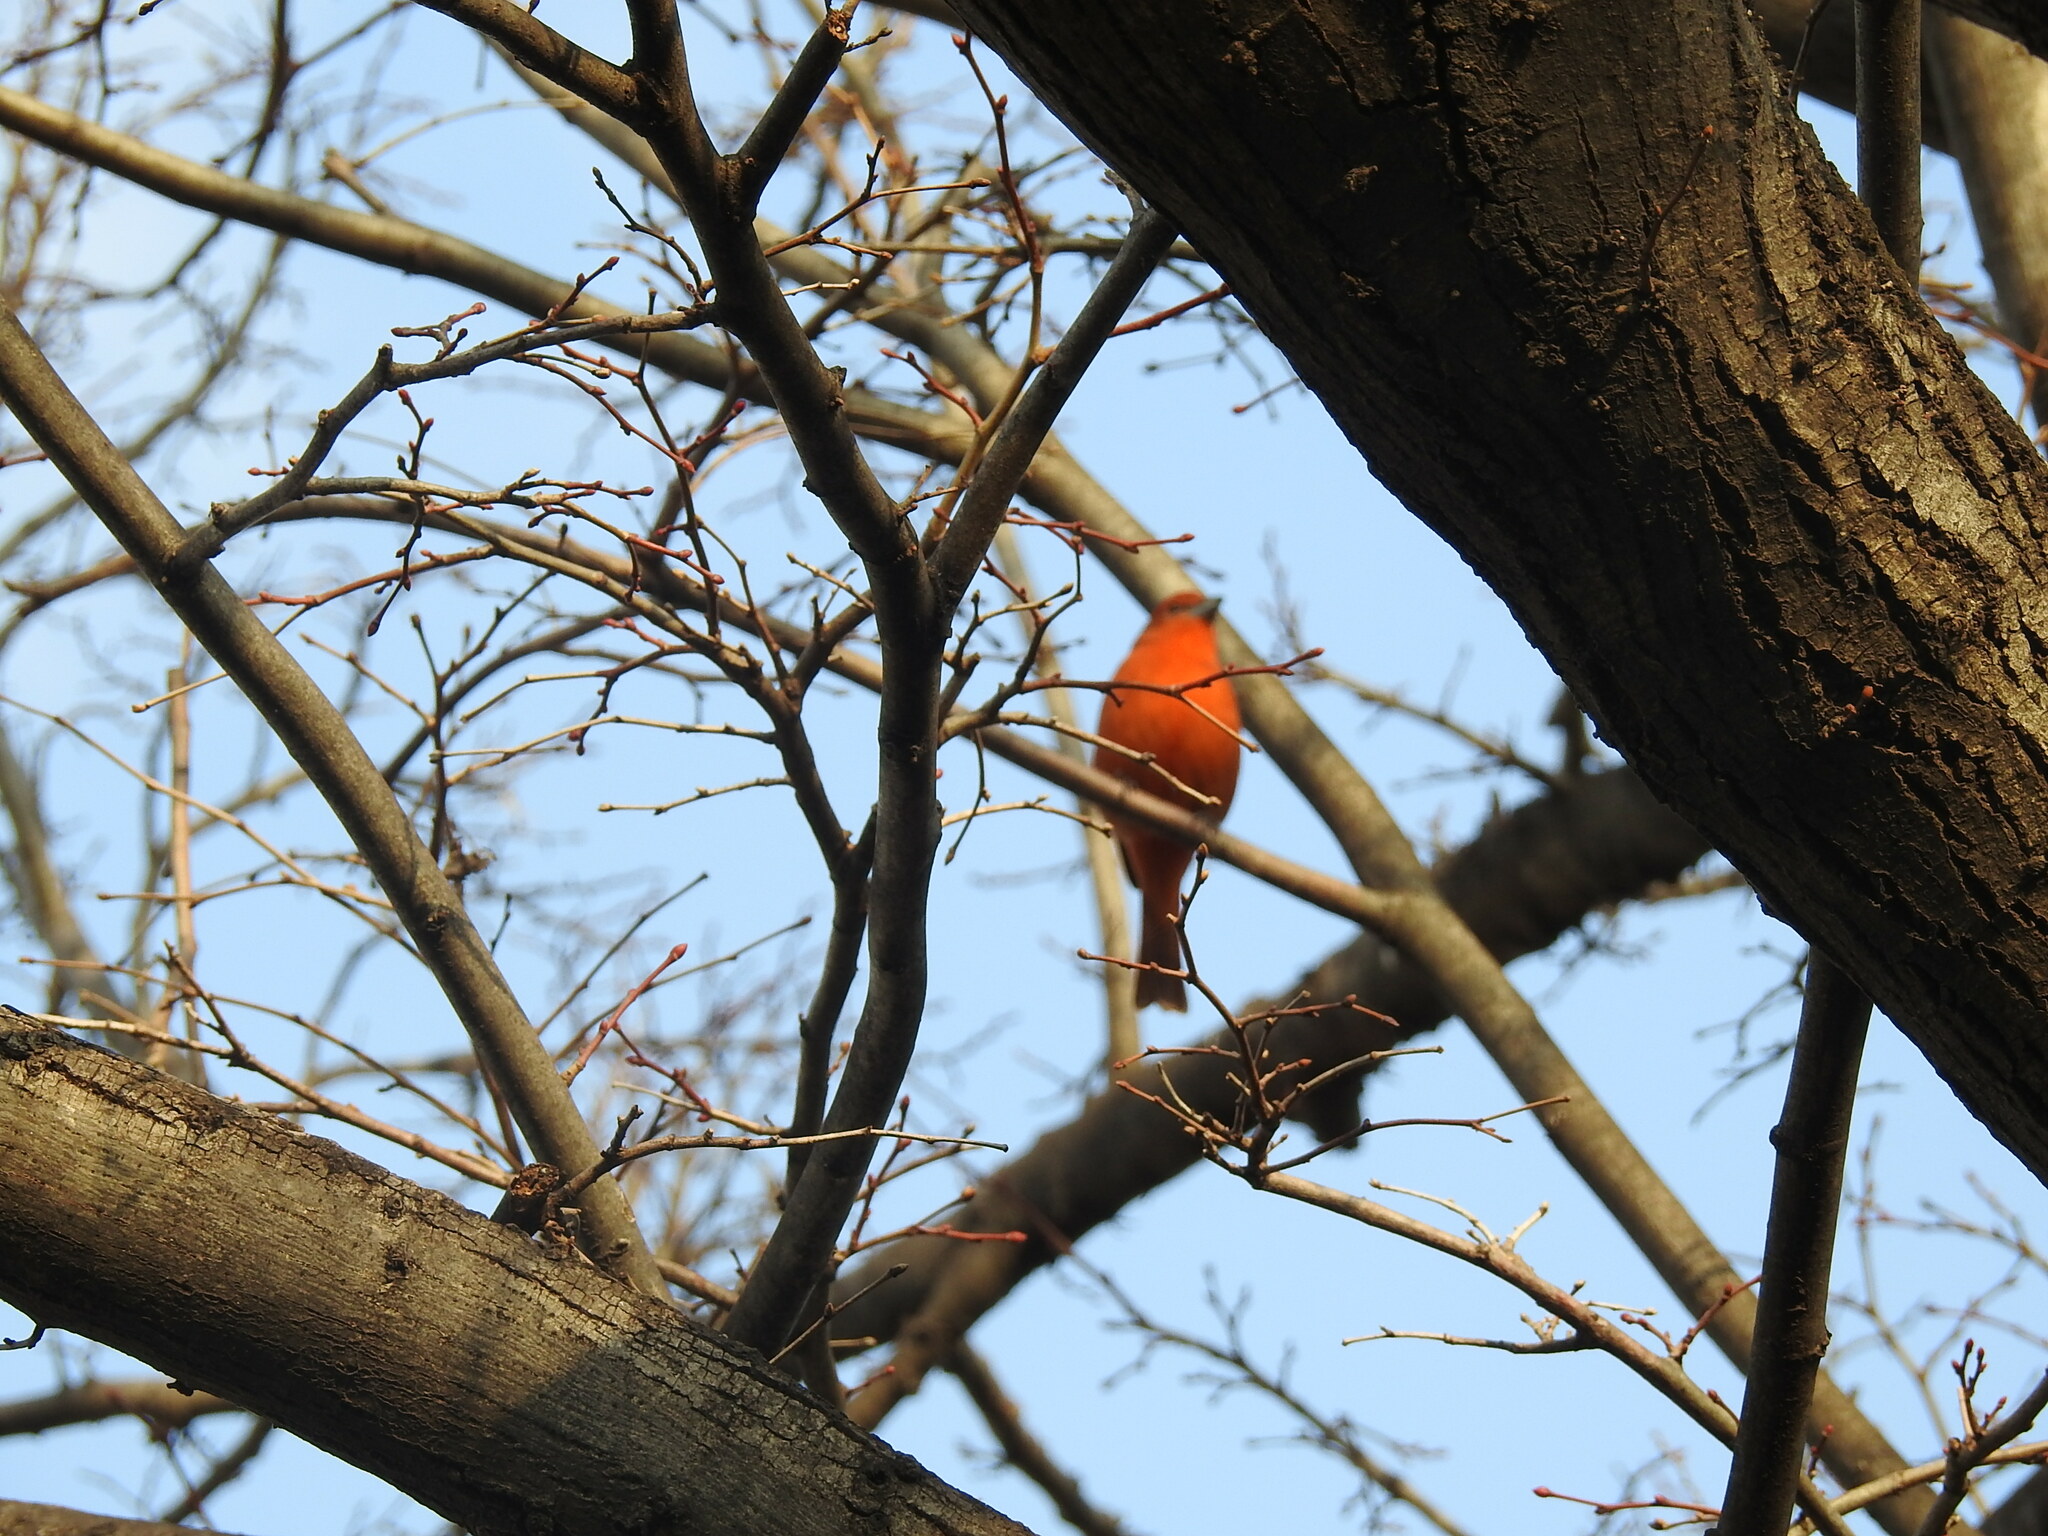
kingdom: Animalia
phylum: Chordata
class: Aves
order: Passeriformes
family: Cardinalidae
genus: Piranga
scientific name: Piranga flava
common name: Red tanager
